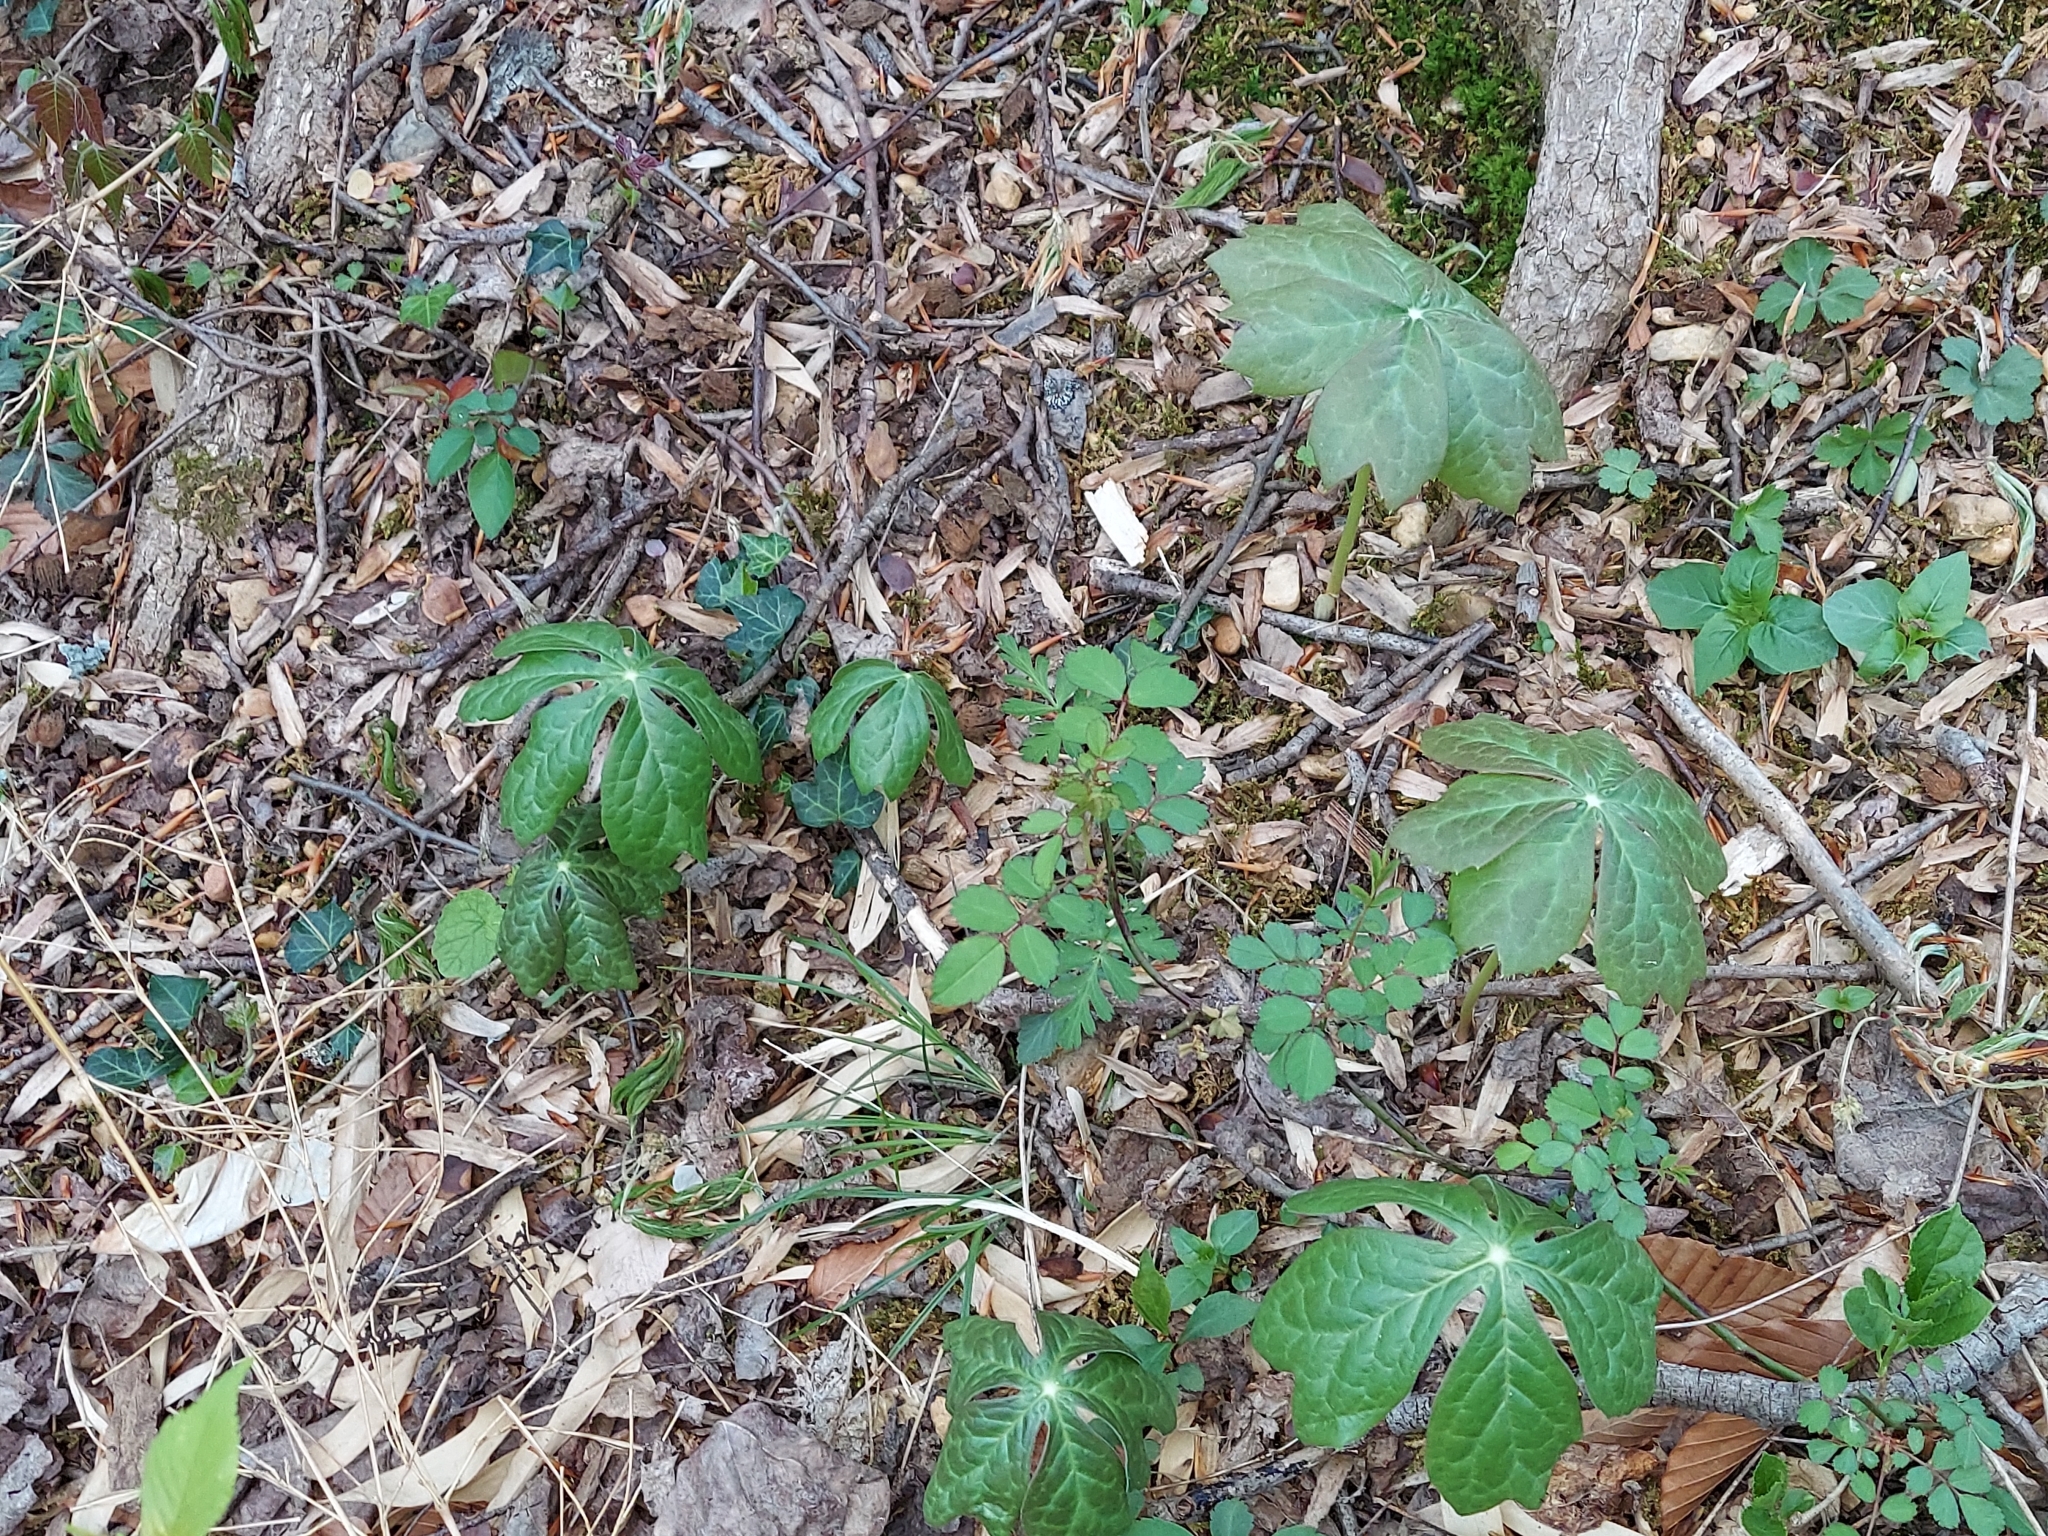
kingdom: Plantae
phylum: Tracheophyta
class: Magnoliopsida
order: Ranunculales
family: Berberidaceae
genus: Podophyllum
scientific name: Podophyllum peltatum
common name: Wild mandrake
